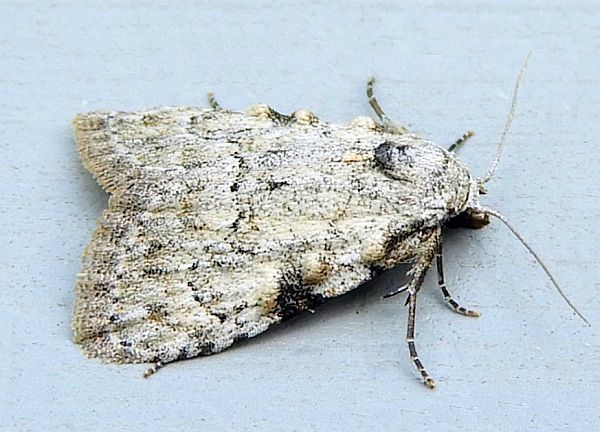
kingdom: Animalia
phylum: Arthropoda
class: Insecta
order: Lepidoptera
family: Nolidae
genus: Meganola
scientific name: Meganola minuscula
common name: Confused meganola moth
